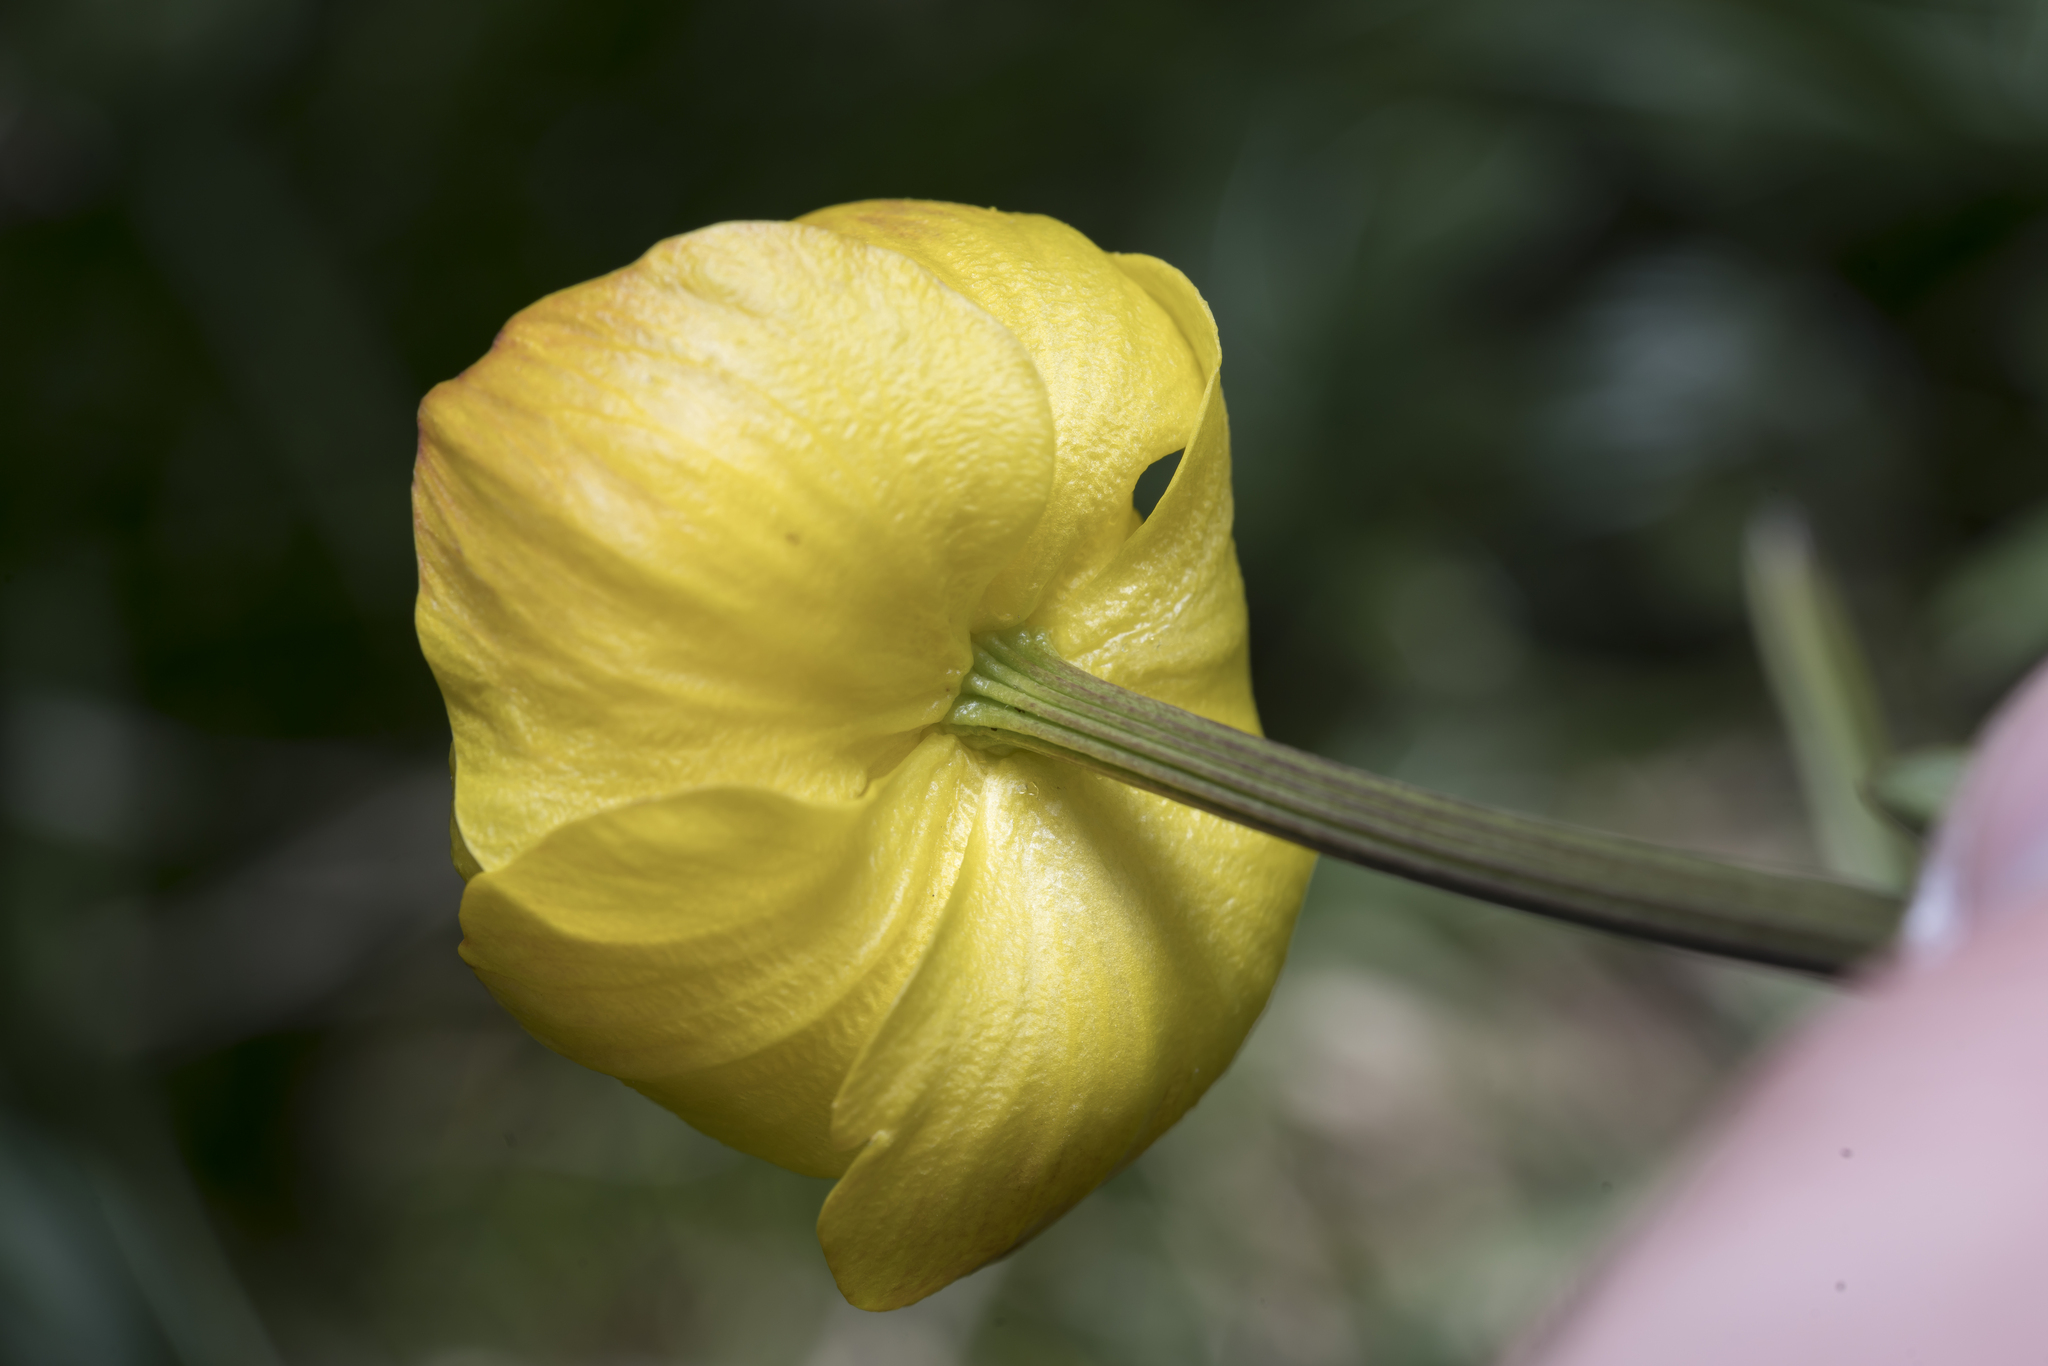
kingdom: Plantae
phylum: Tracheophyta
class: Magnoliopsida
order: Ranunculales
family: Ranunculaceae
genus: Trollius
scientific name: Trollius europaeus
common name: European globeflower
